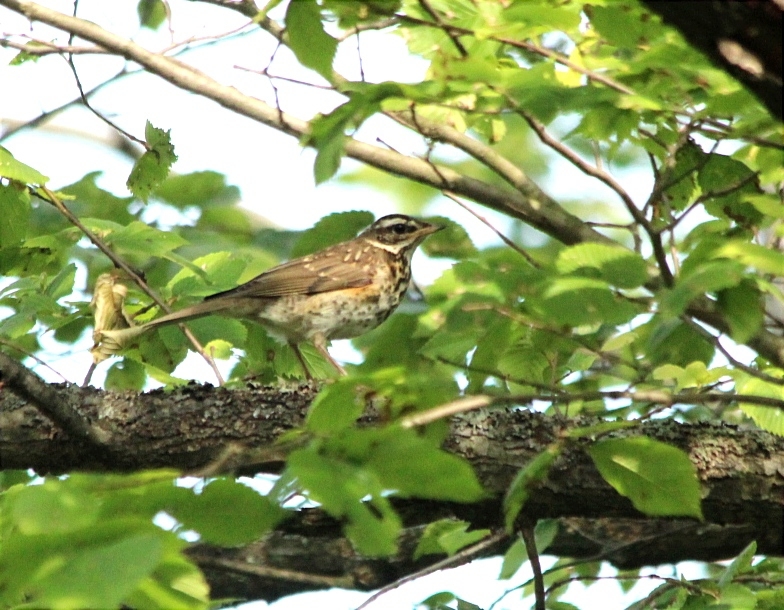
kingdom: Animalia
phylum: Chordata
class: Aves
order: Passeriformes
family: Turdidae
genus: Turdus
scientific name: Turdus iliacus
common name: Redwing
